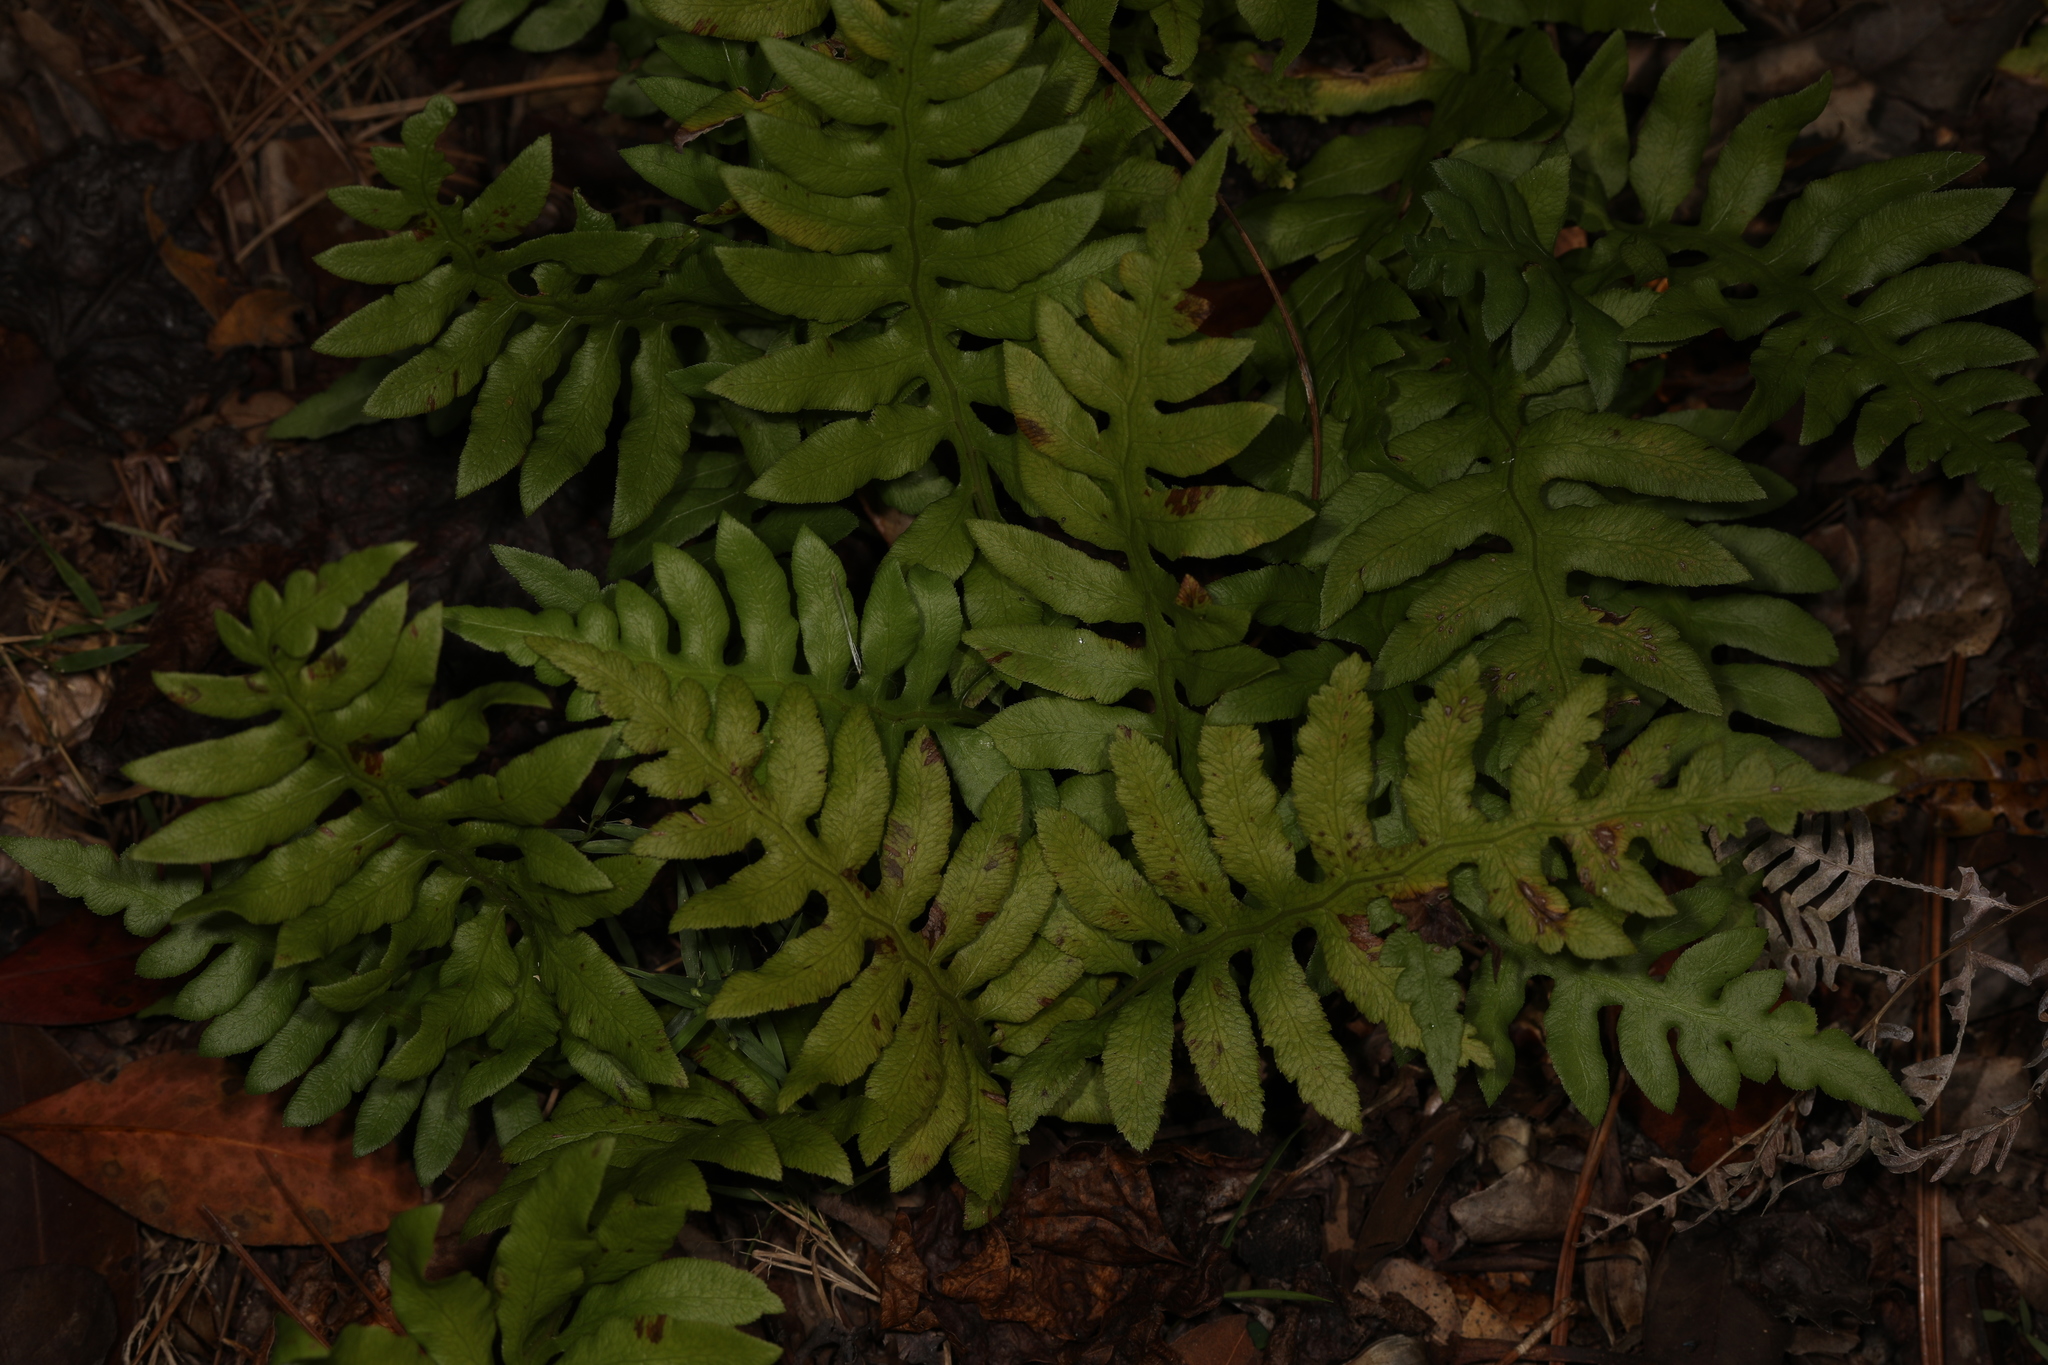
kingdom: Plantae
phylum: Tracheophyta
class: Polypodiopsida
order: Polypodiales
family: Blechnaceae
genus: Lorinseria
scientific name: Lorinseria areolata
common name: Dwarf chain fern
